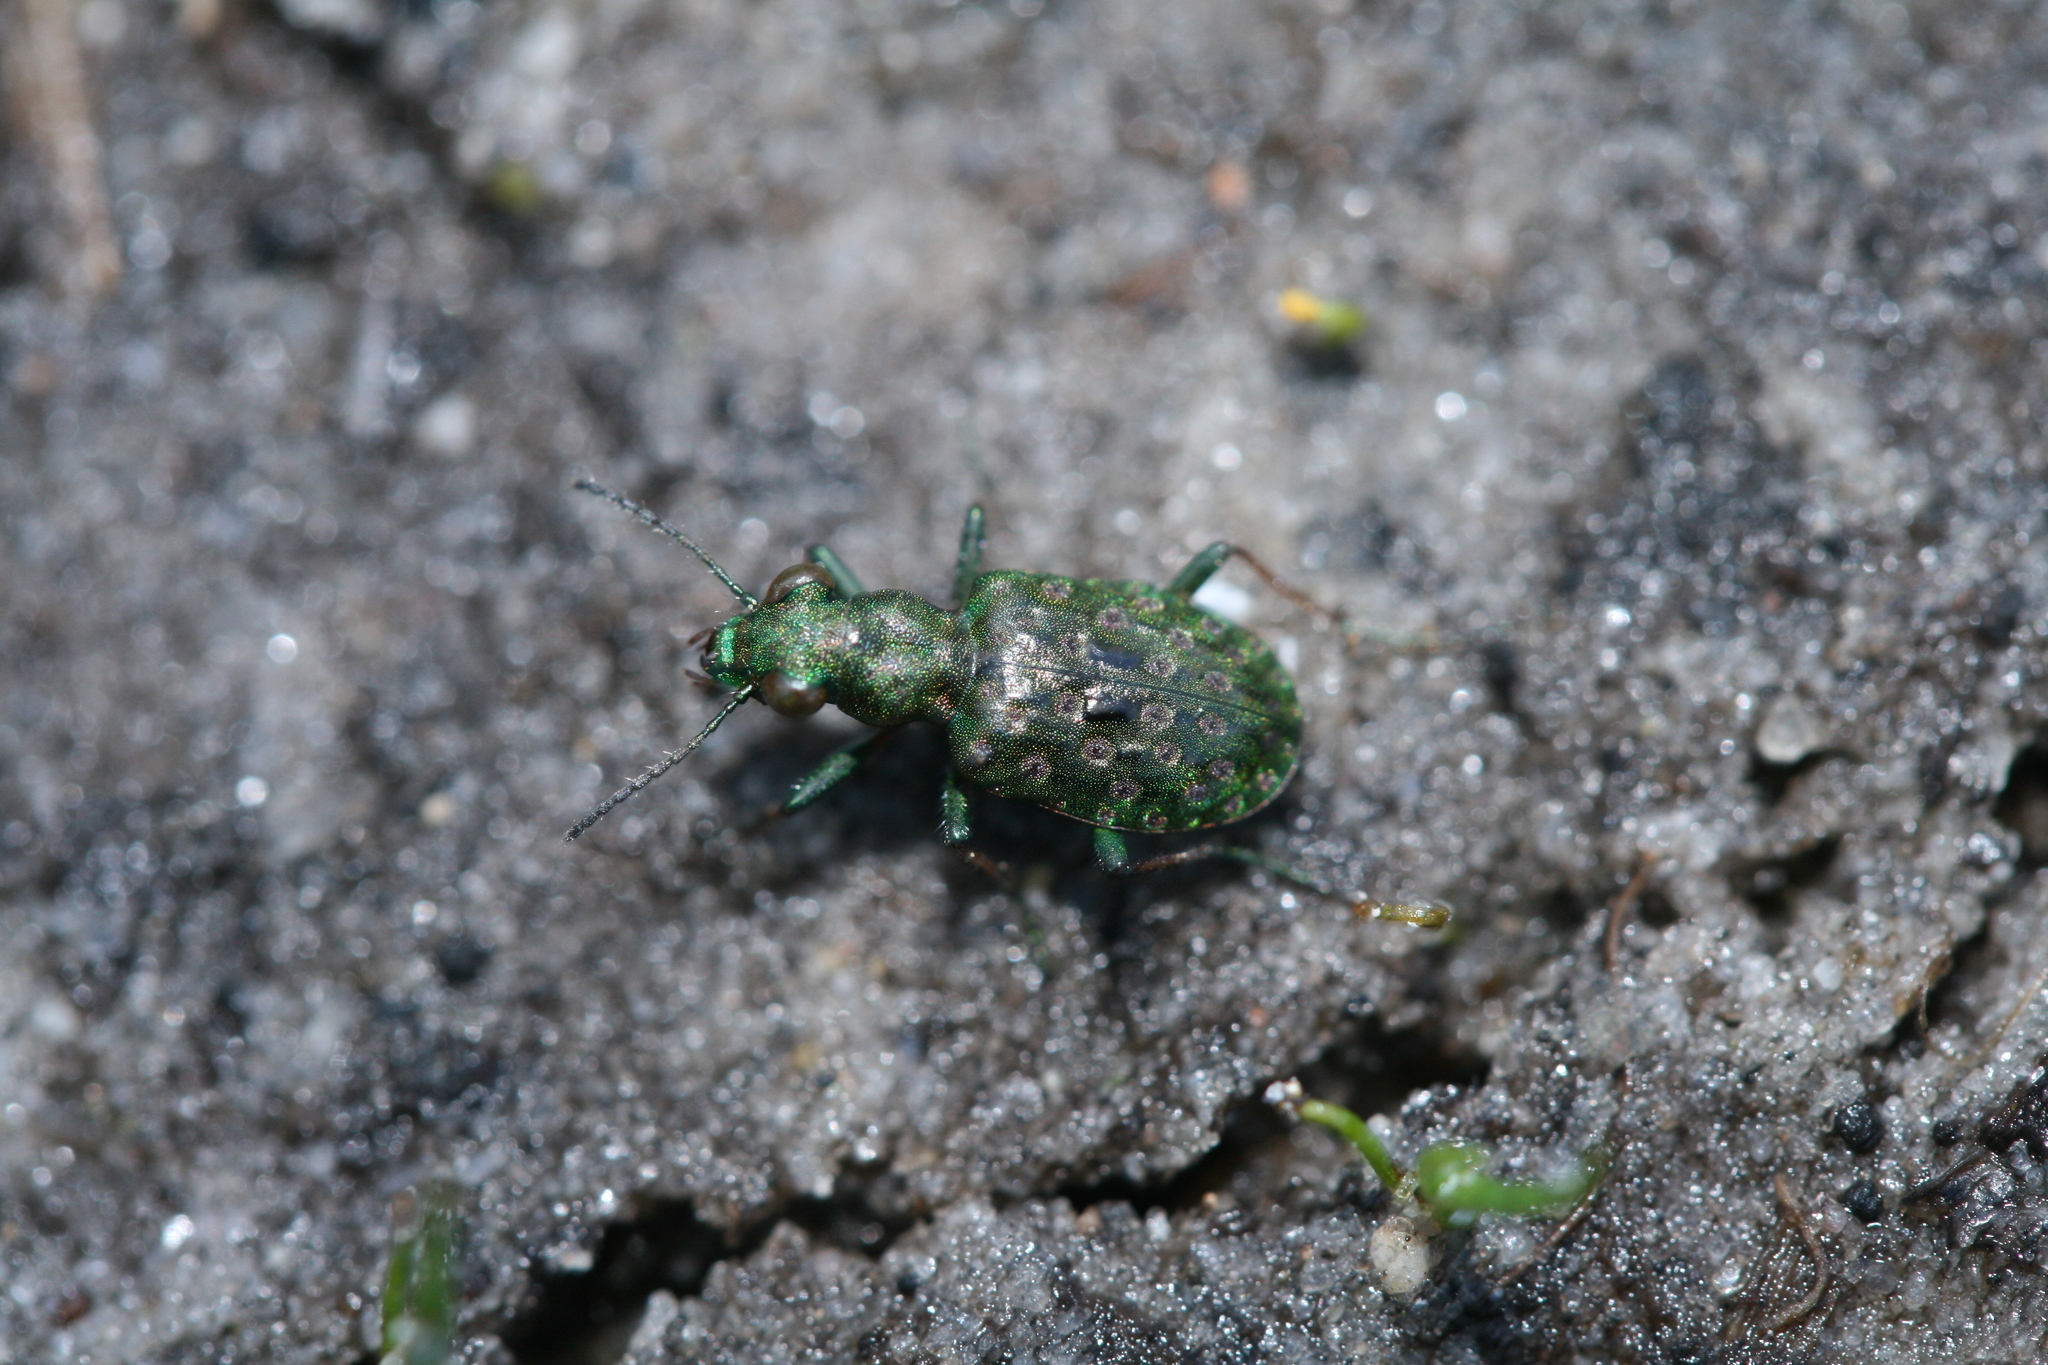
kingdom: Animalia
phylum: Arthropoda
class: Insecta
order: Coleoptera
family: Carabidae
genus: Elaphrus
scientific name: Elaphrus riparius
